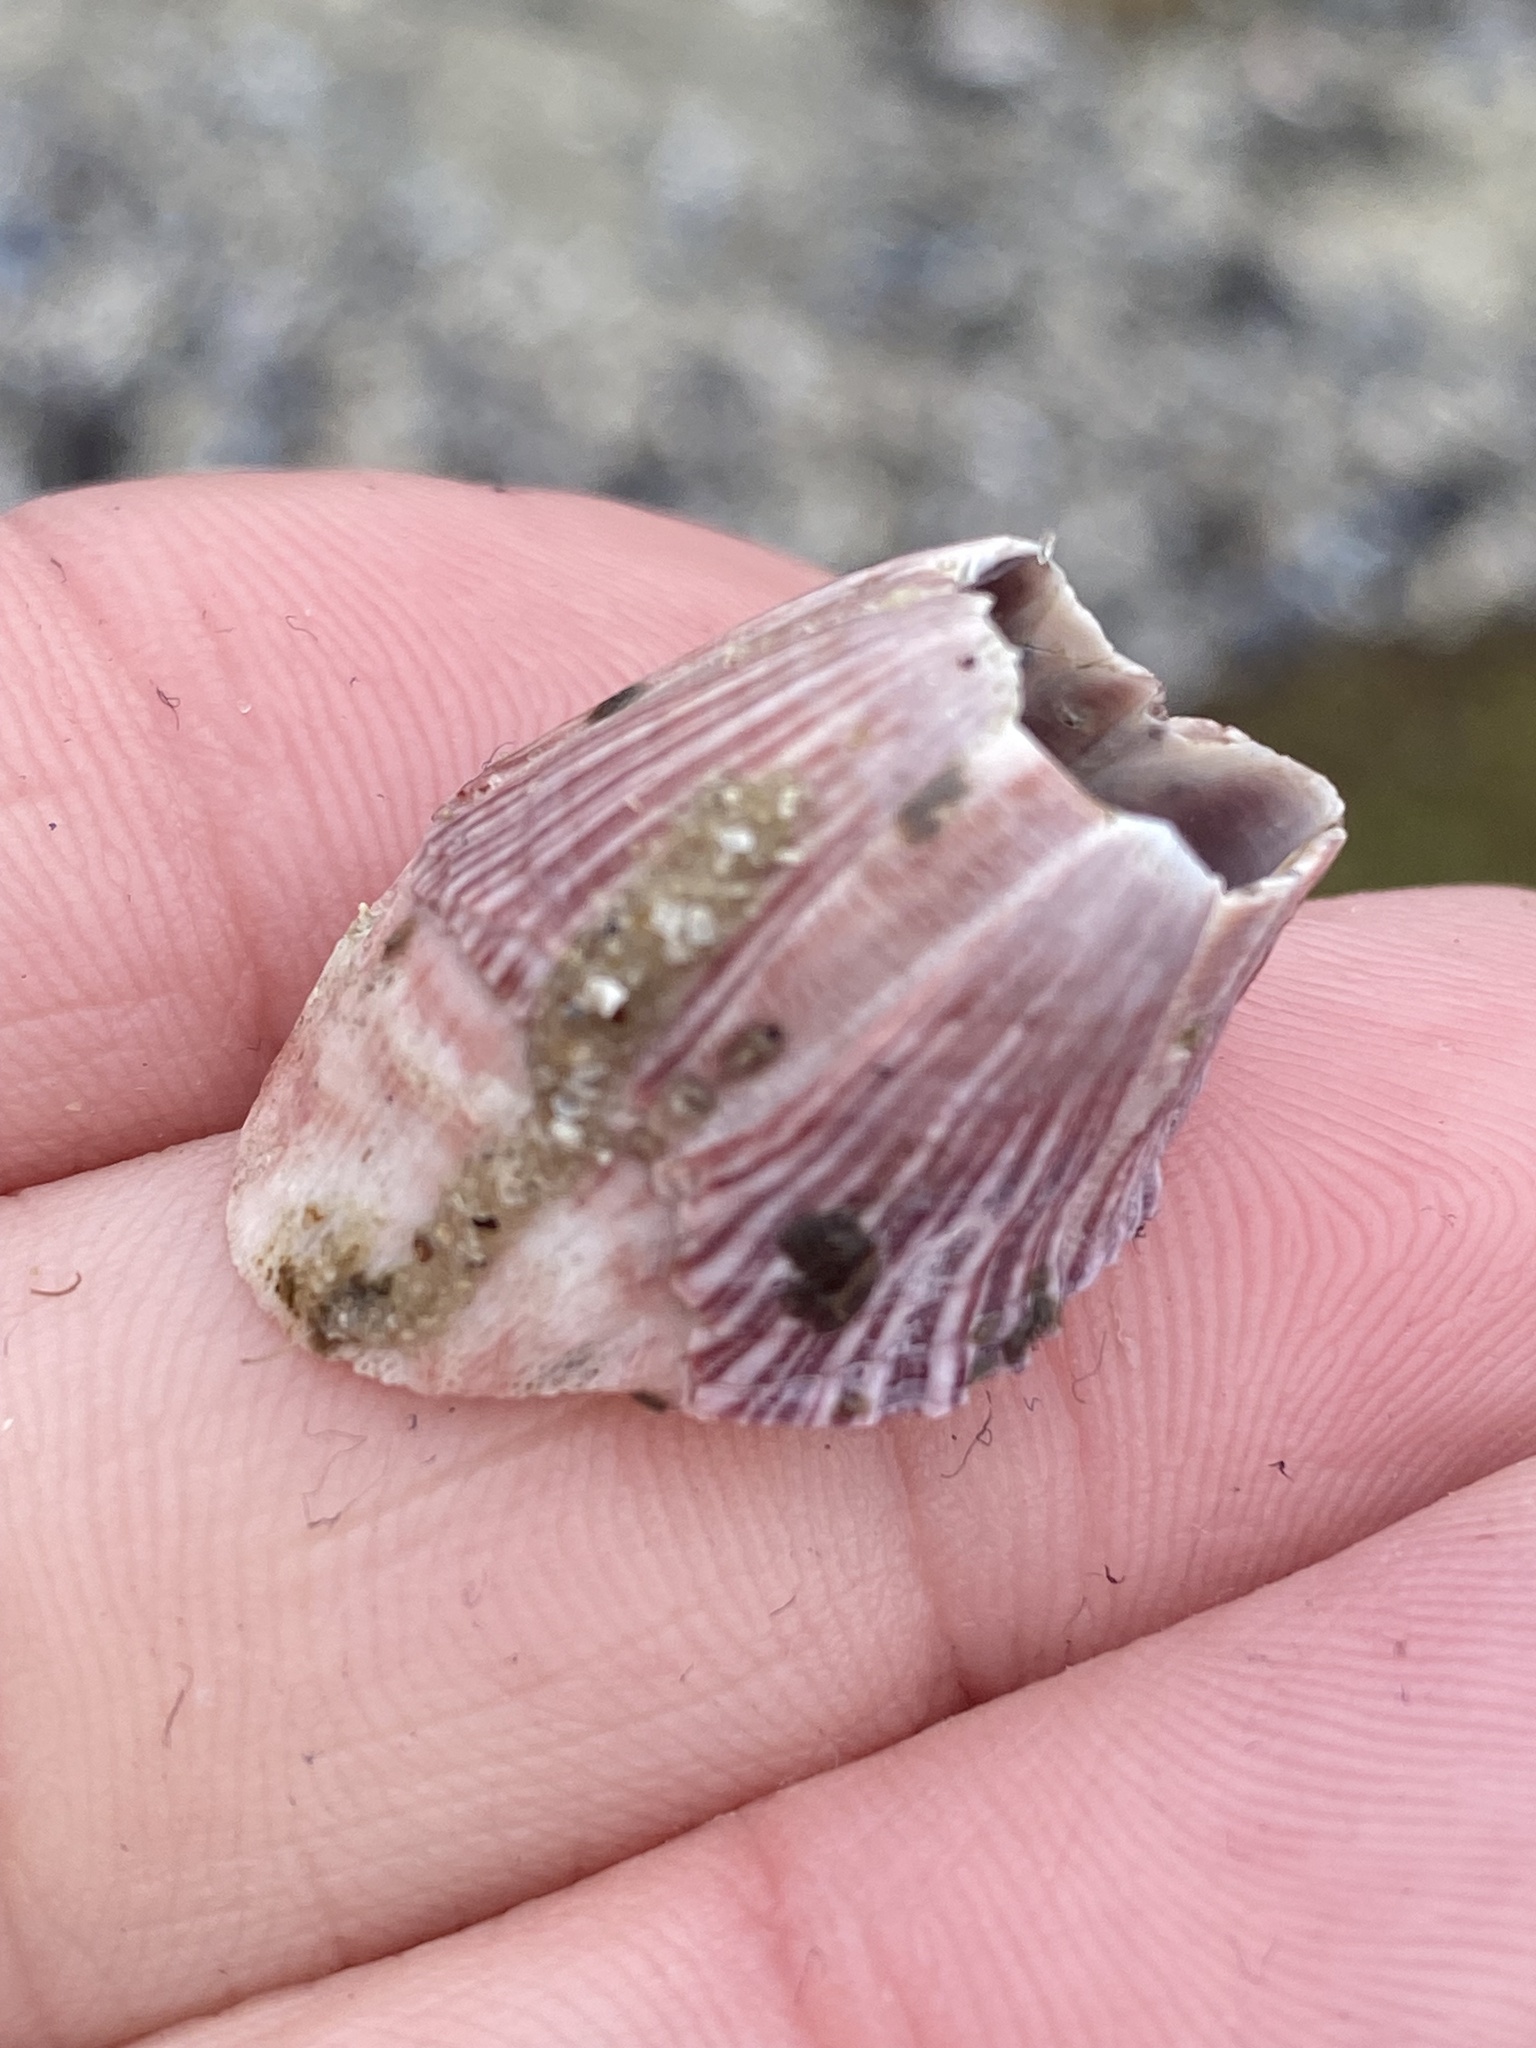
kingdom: Animalia
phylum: Arthropoda
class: Maxillopoda
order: Sessilia
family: Balanidae
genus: Megabalanus
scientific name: Megabalanus californicus
